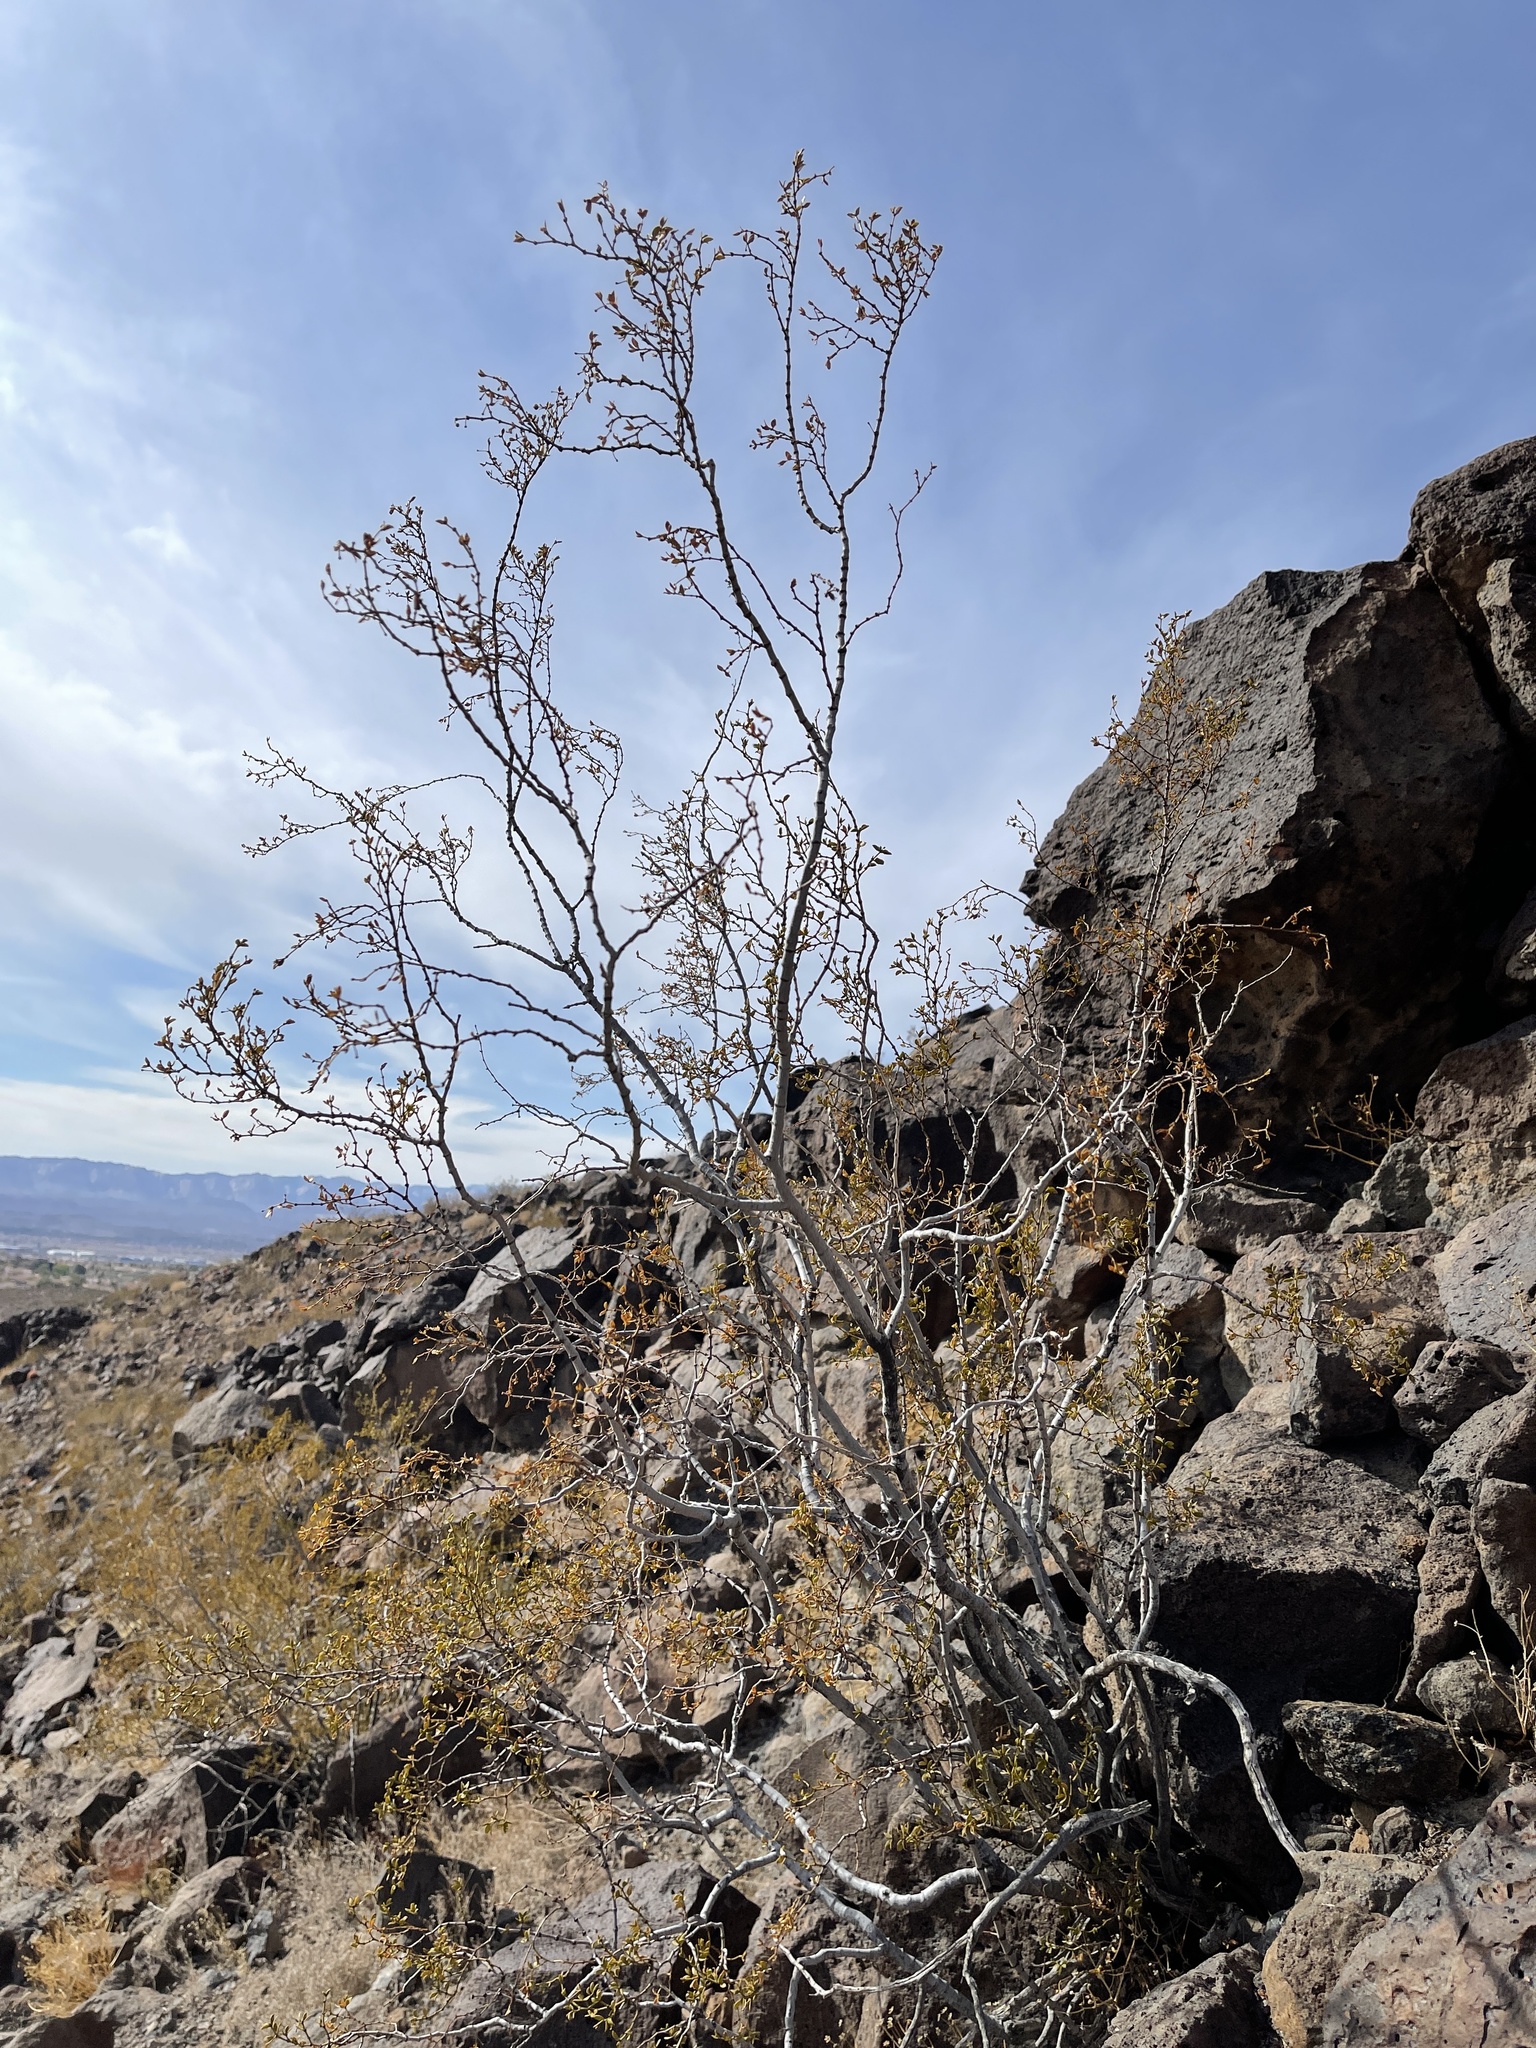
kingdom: Plantae
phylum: Tracheophyta
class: Magnoliopsida
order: Zygophyllales
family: Zygophyllaceae
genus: Larrea
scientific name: Larrea tridentata
